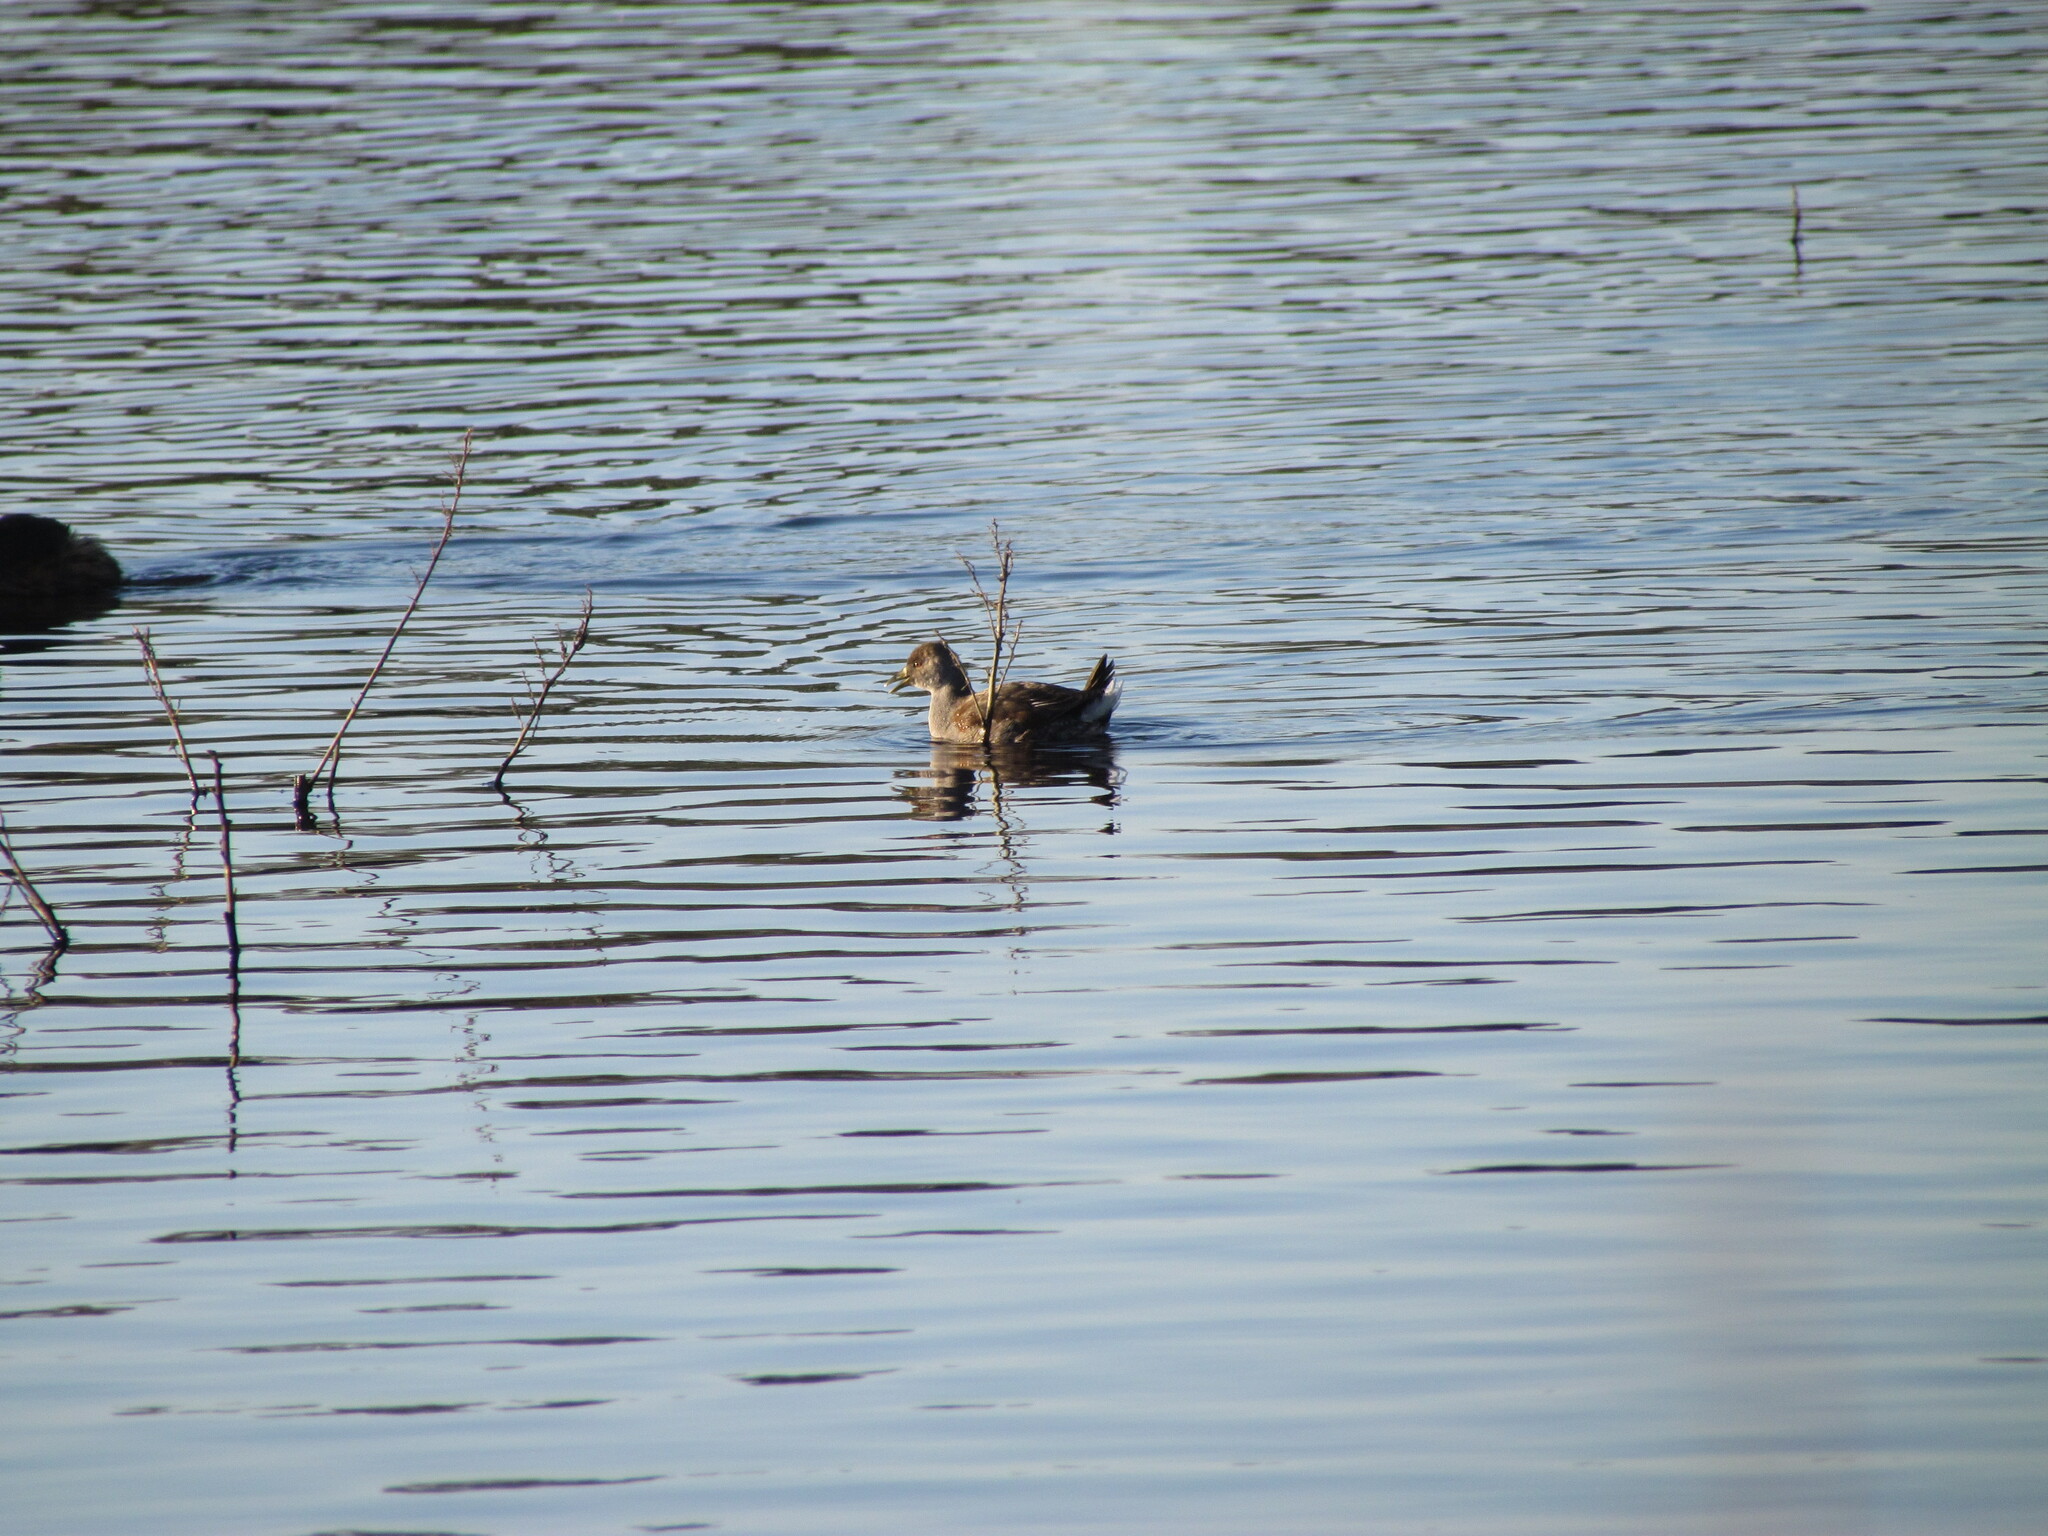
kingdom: Animalia
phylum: Chordata
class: Aves
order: Gruiformes
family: Rallidae
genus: Gallinula
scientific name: Gallinula melanops
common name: Spot-flanked gallinule
